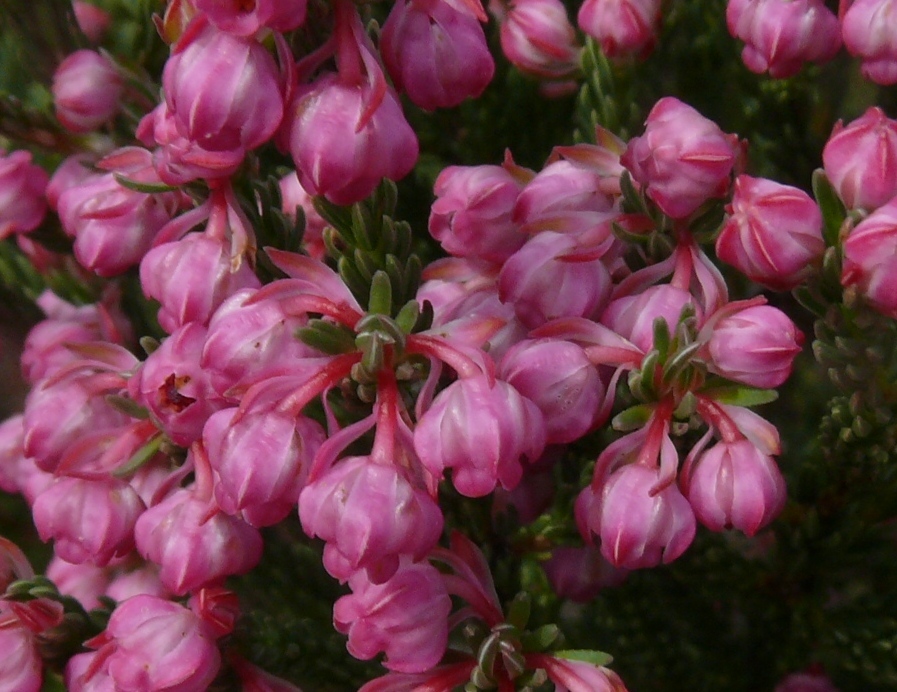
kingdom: Plantae
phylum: Tracheophyta
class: Magnoliopsida
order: Ericales
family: Ericaceae
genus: Erica
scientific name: Erica baccans
